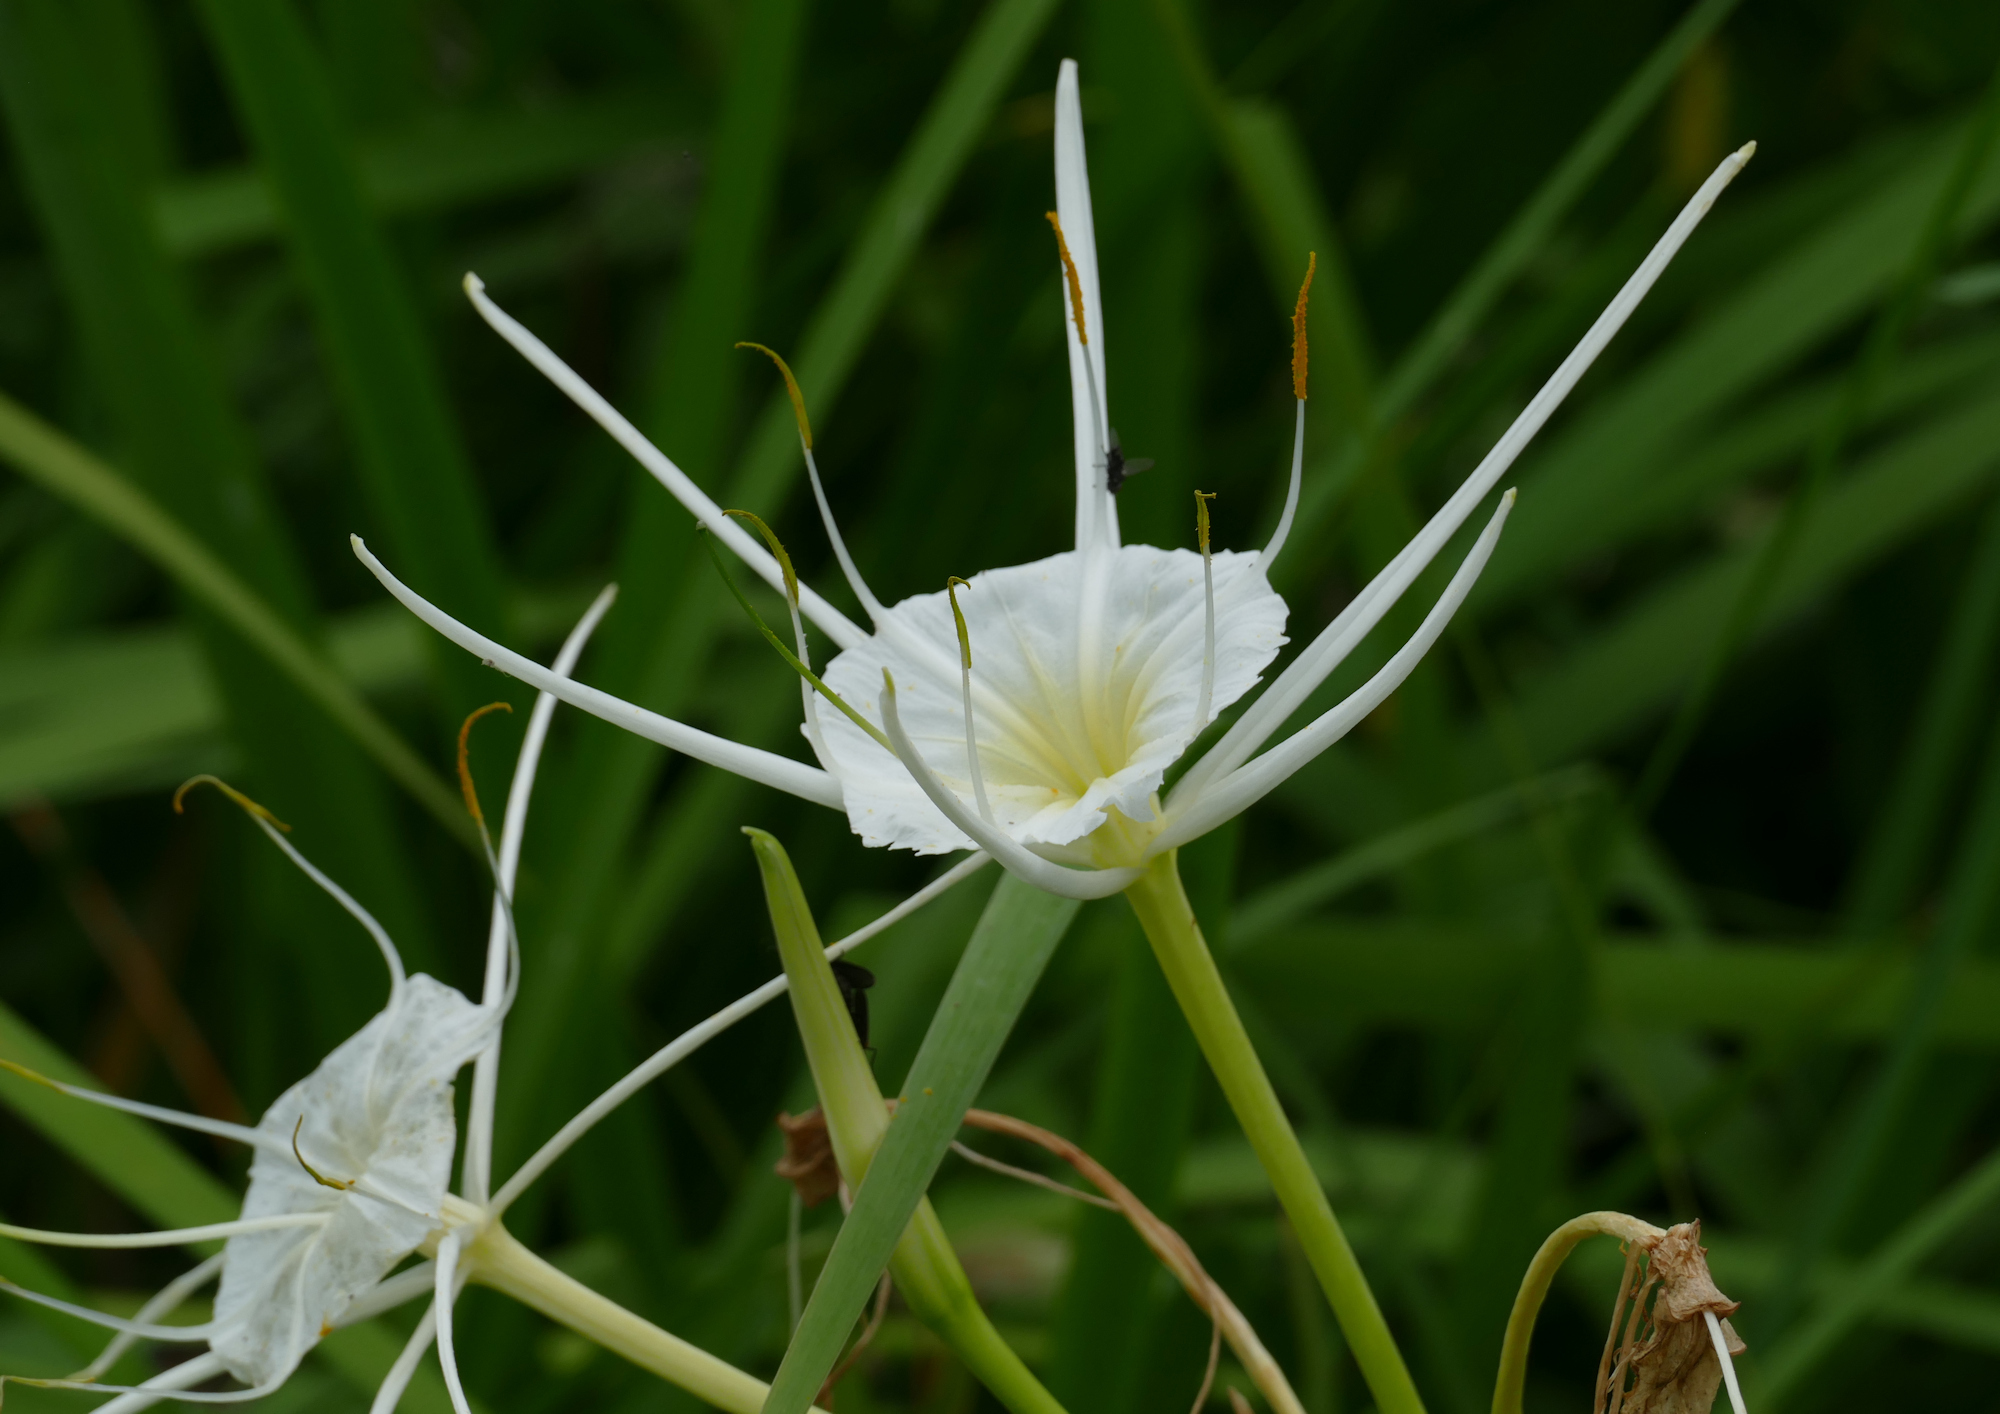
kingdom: Plantae
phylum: Tracheophyta
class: Liliopsida
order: Asparagales
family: Amaryllidaceae
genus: Hymenocallis
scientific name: Hymenocallis liriosme
